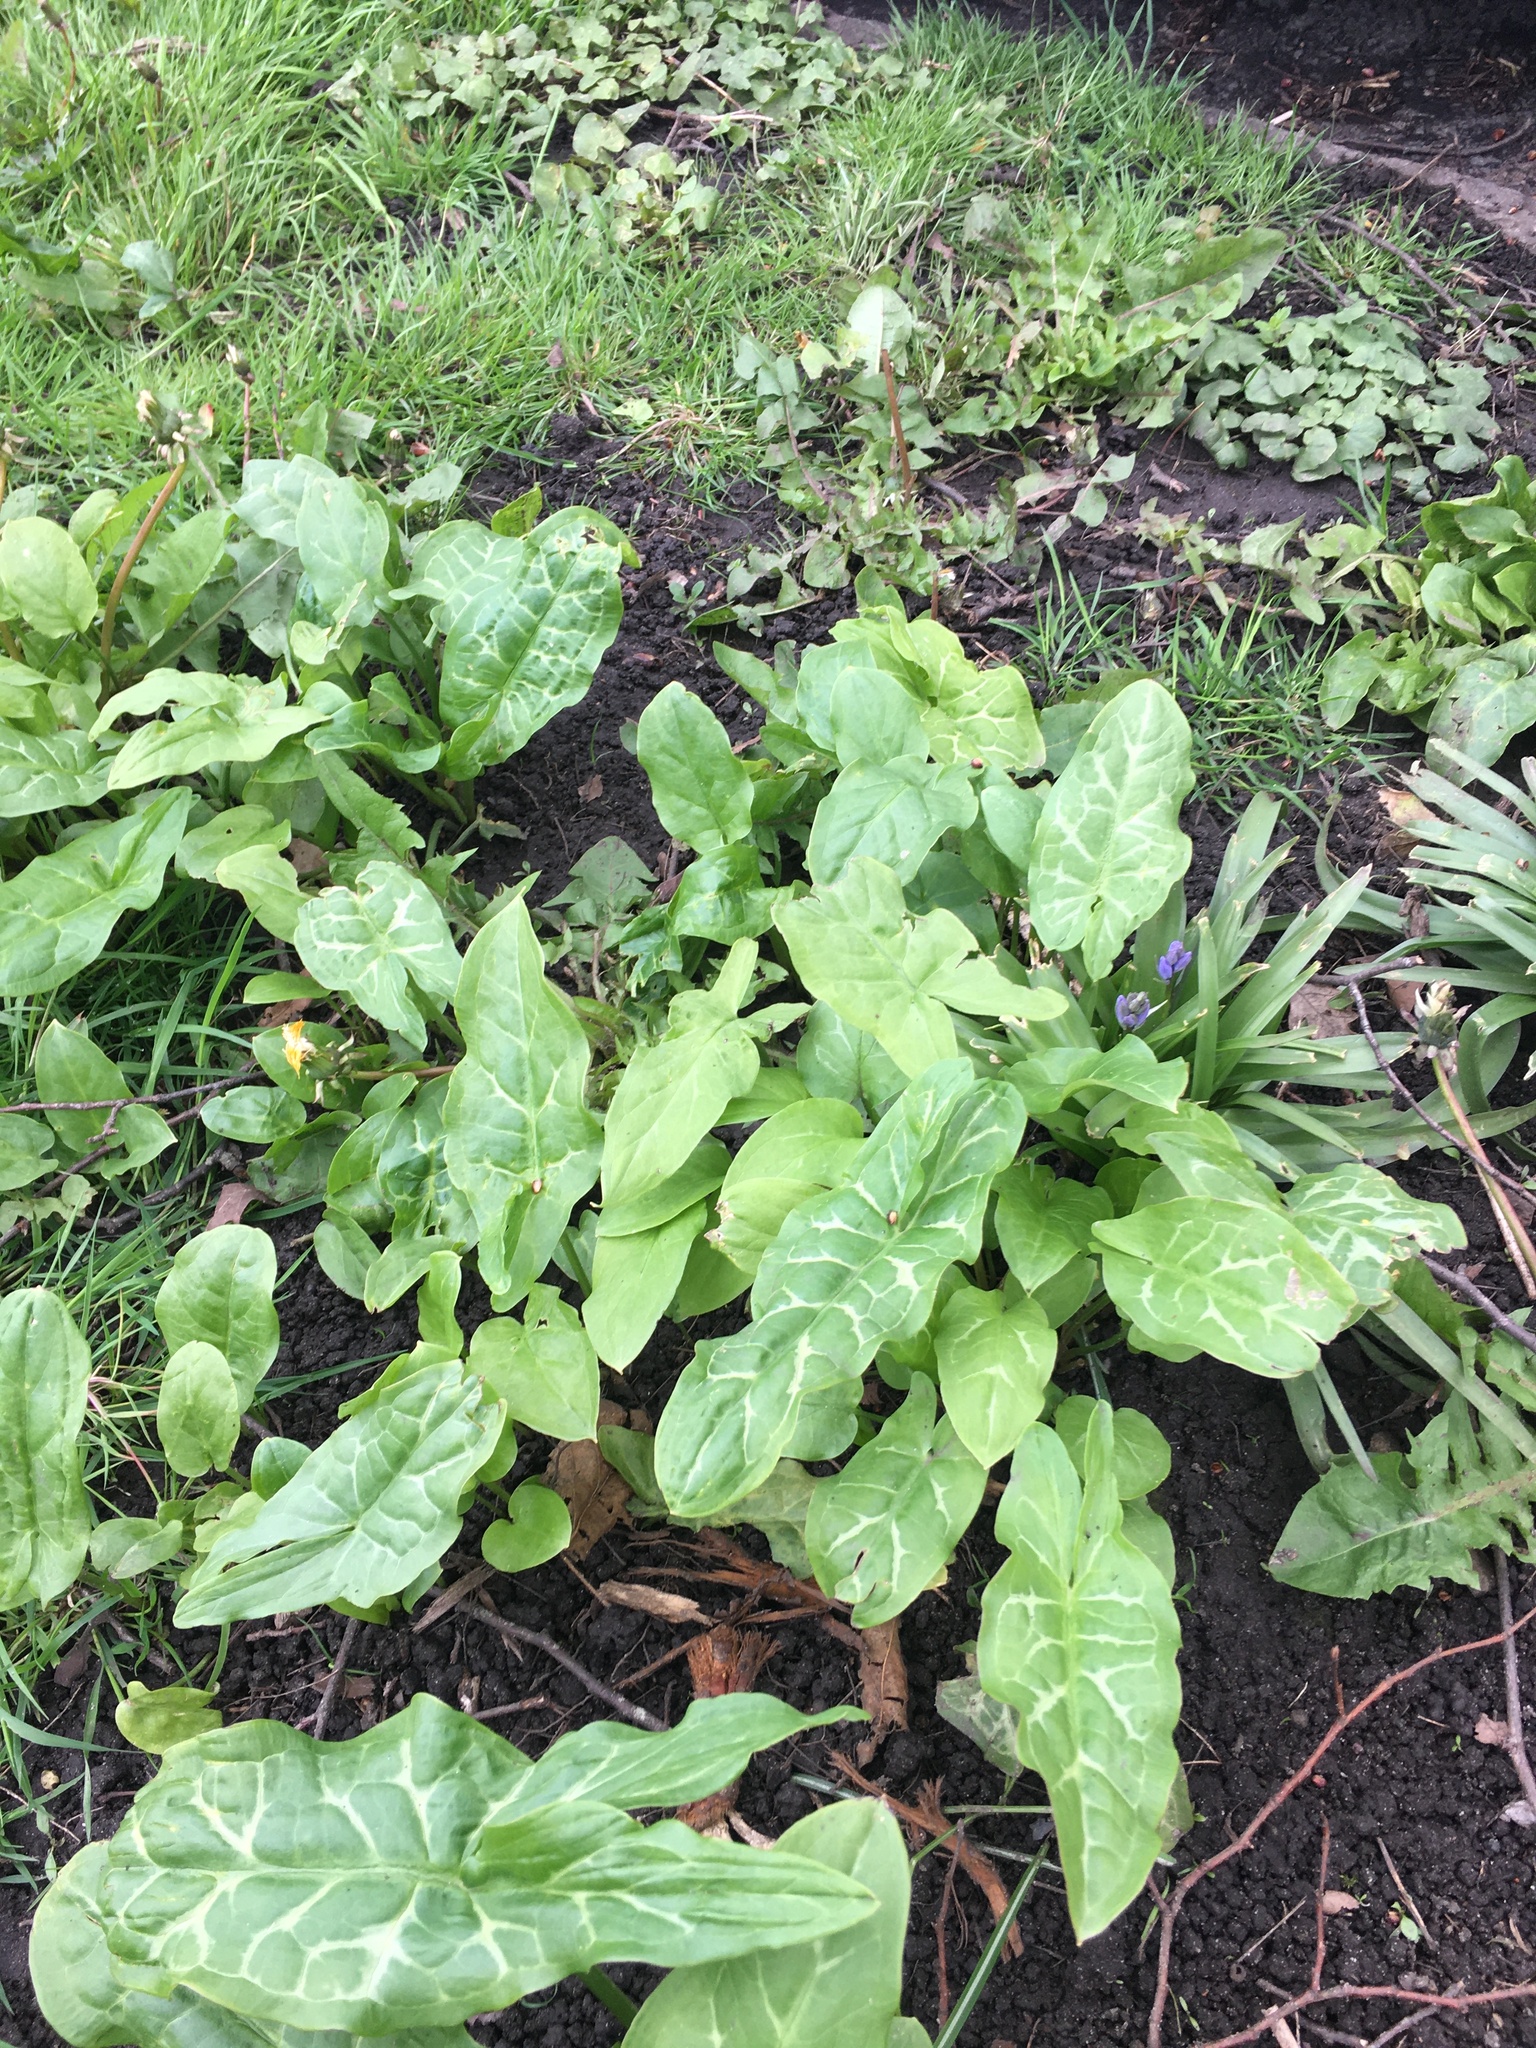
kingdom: Plantae
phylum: Tracheophyta
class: Liliopsida
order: Alismatales
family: Araceae
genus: Arum
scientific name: Arum italicum
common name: Italian lords-and-ladies
